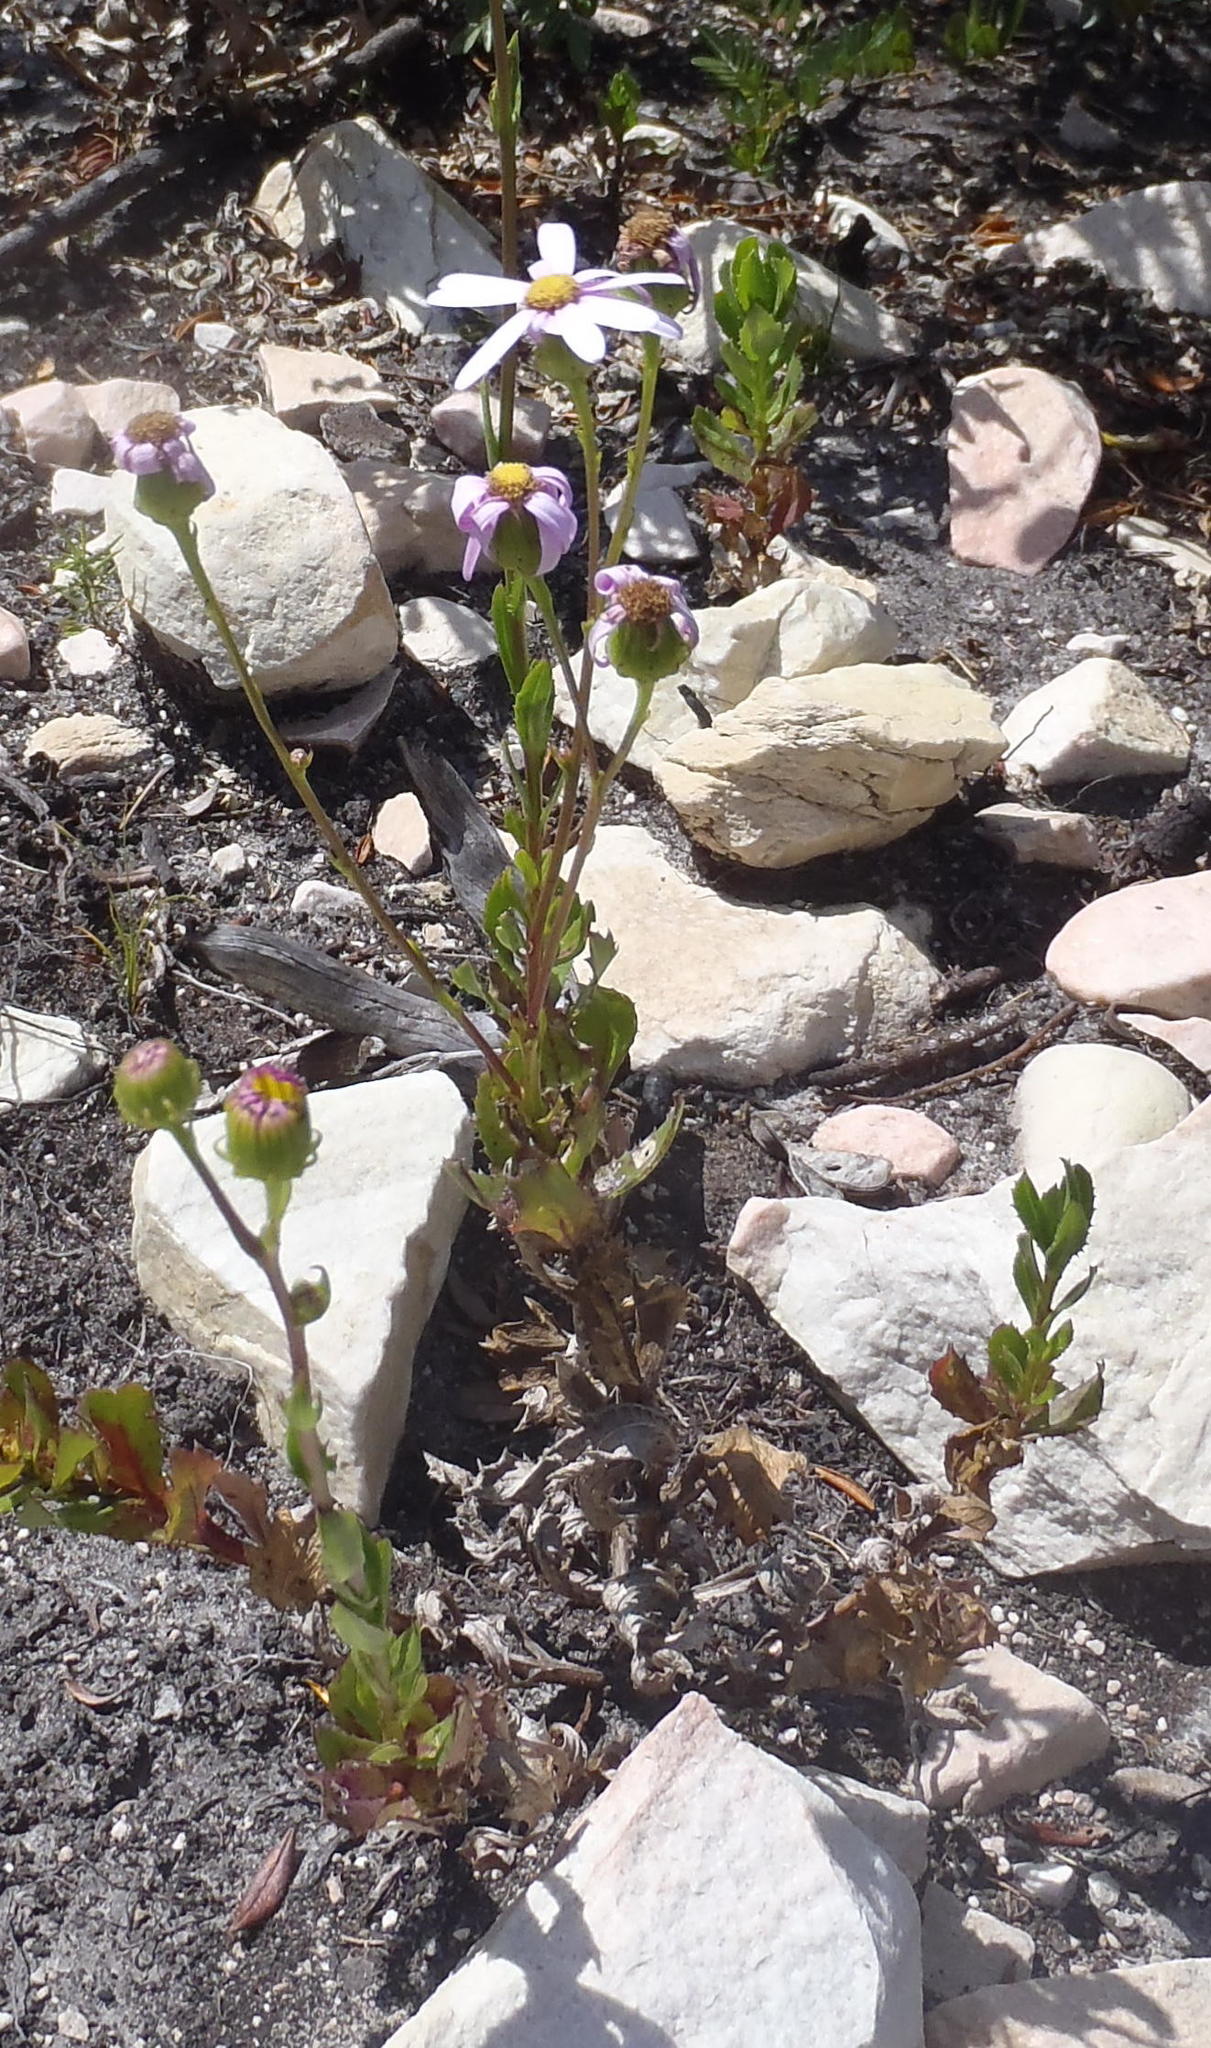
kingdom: Plantae
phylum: Tracheophyta
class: Magnoliopsida
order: Asterales
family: Asteraceae
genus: Senecio
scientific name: Senecio glastifolius
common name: Woad-leaved ragwort
